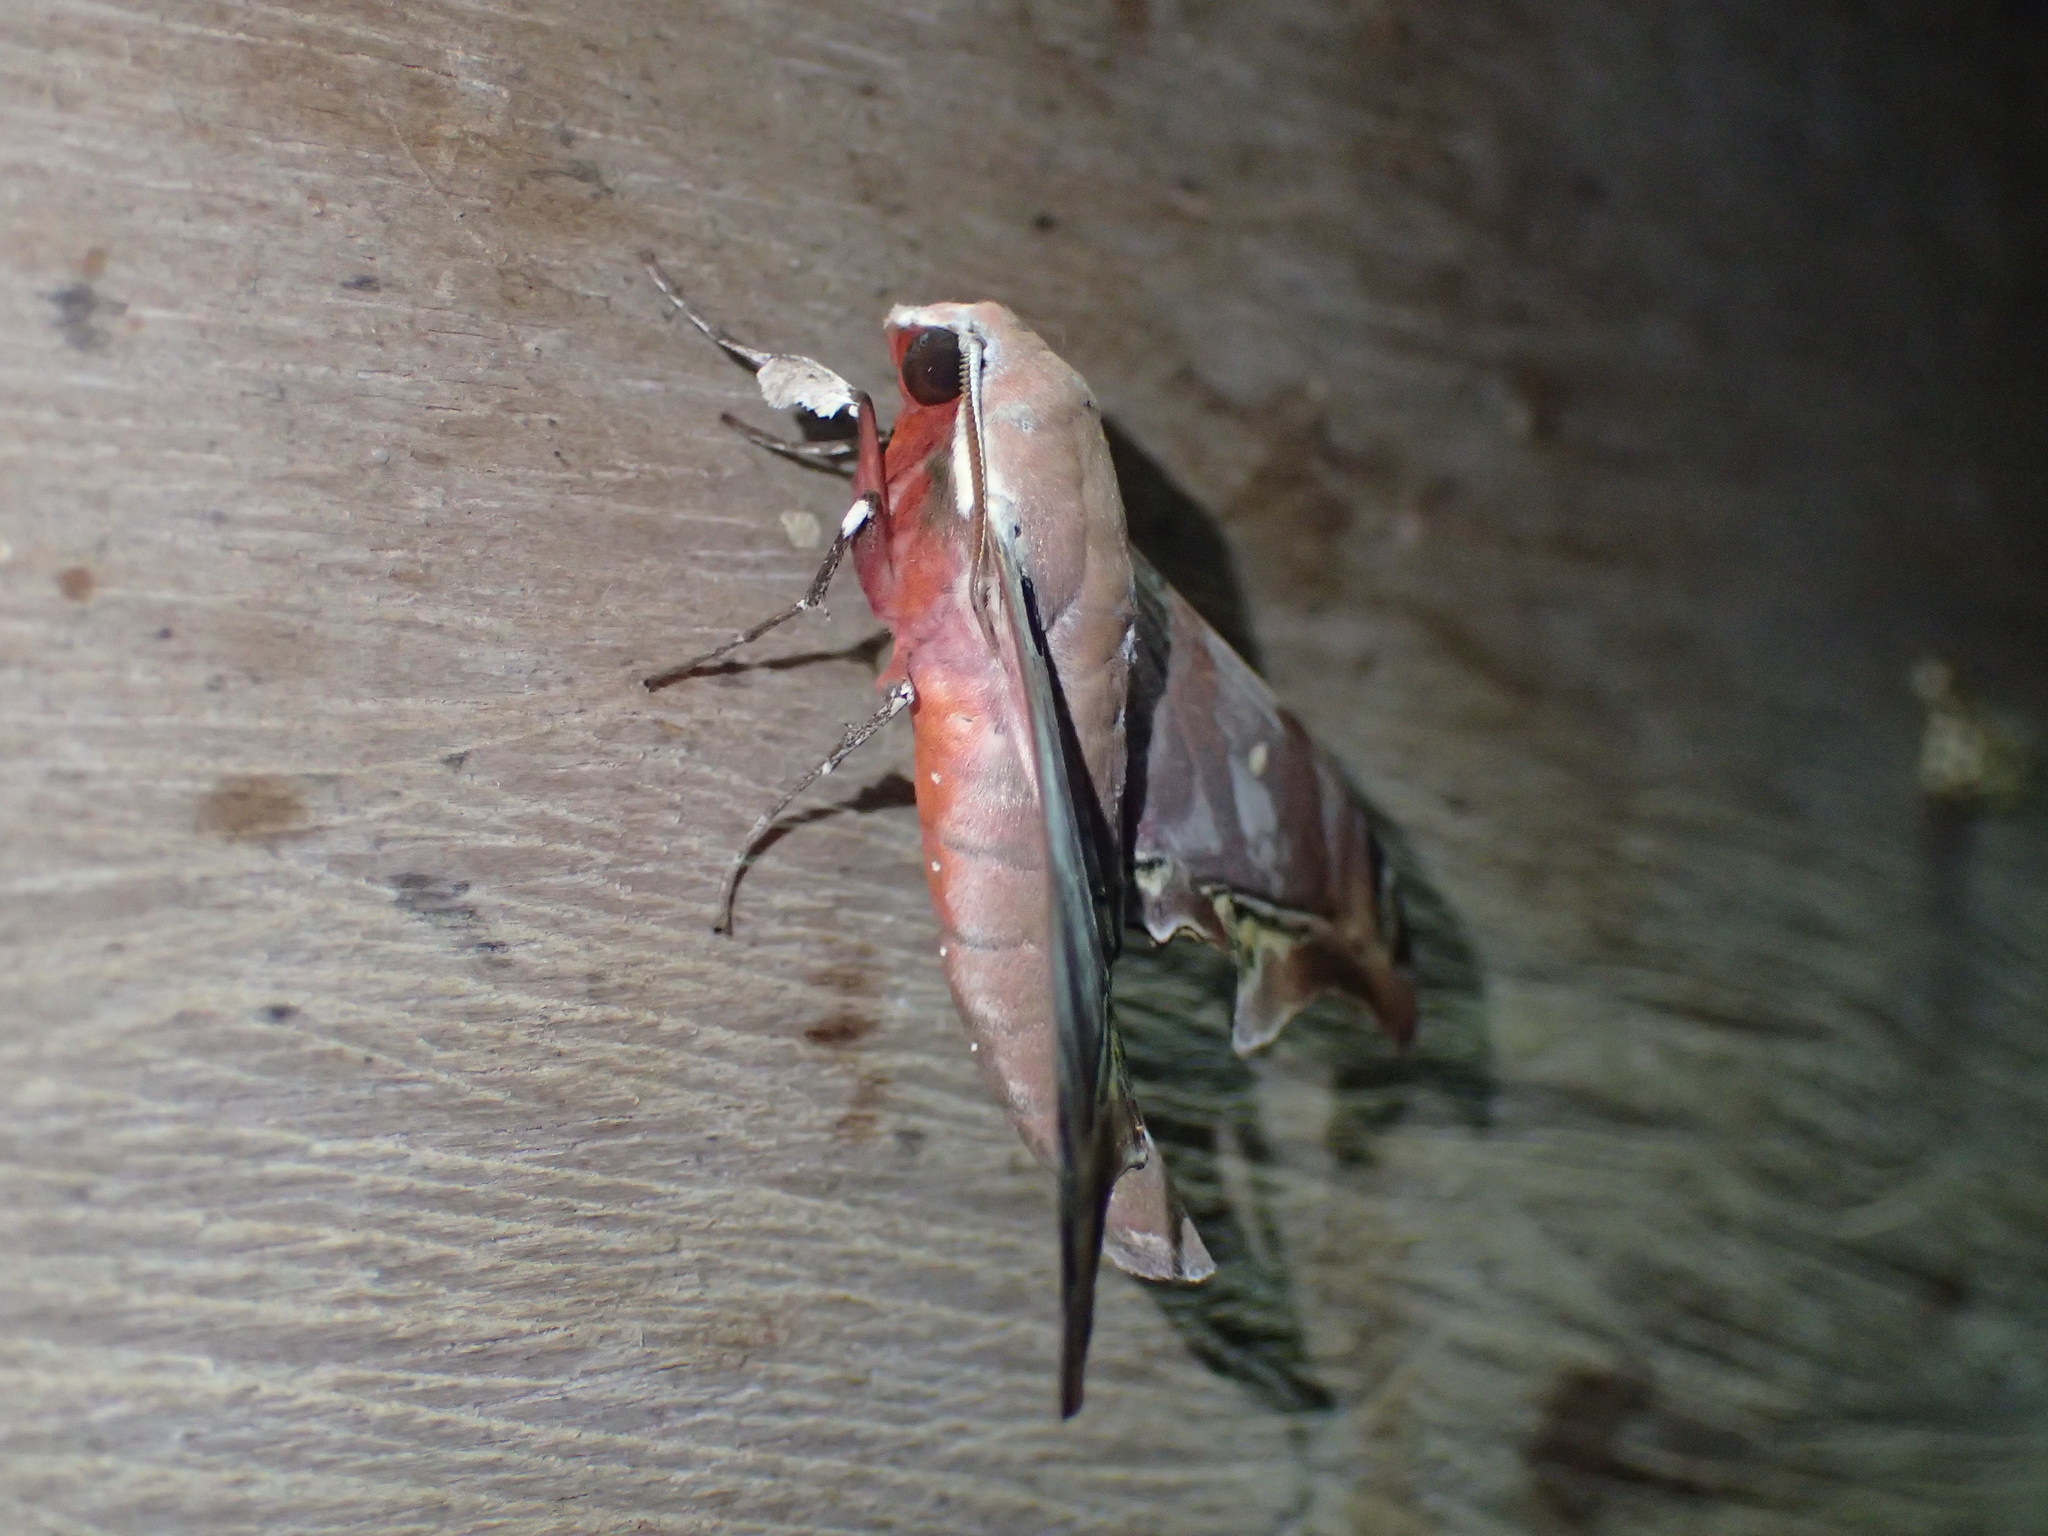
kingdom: Animalia
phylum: Arthropoda
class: Insecta
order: Lepidoptera
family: Sphingidae
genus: Polyptychus
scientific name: Polyptychus lagnelae
